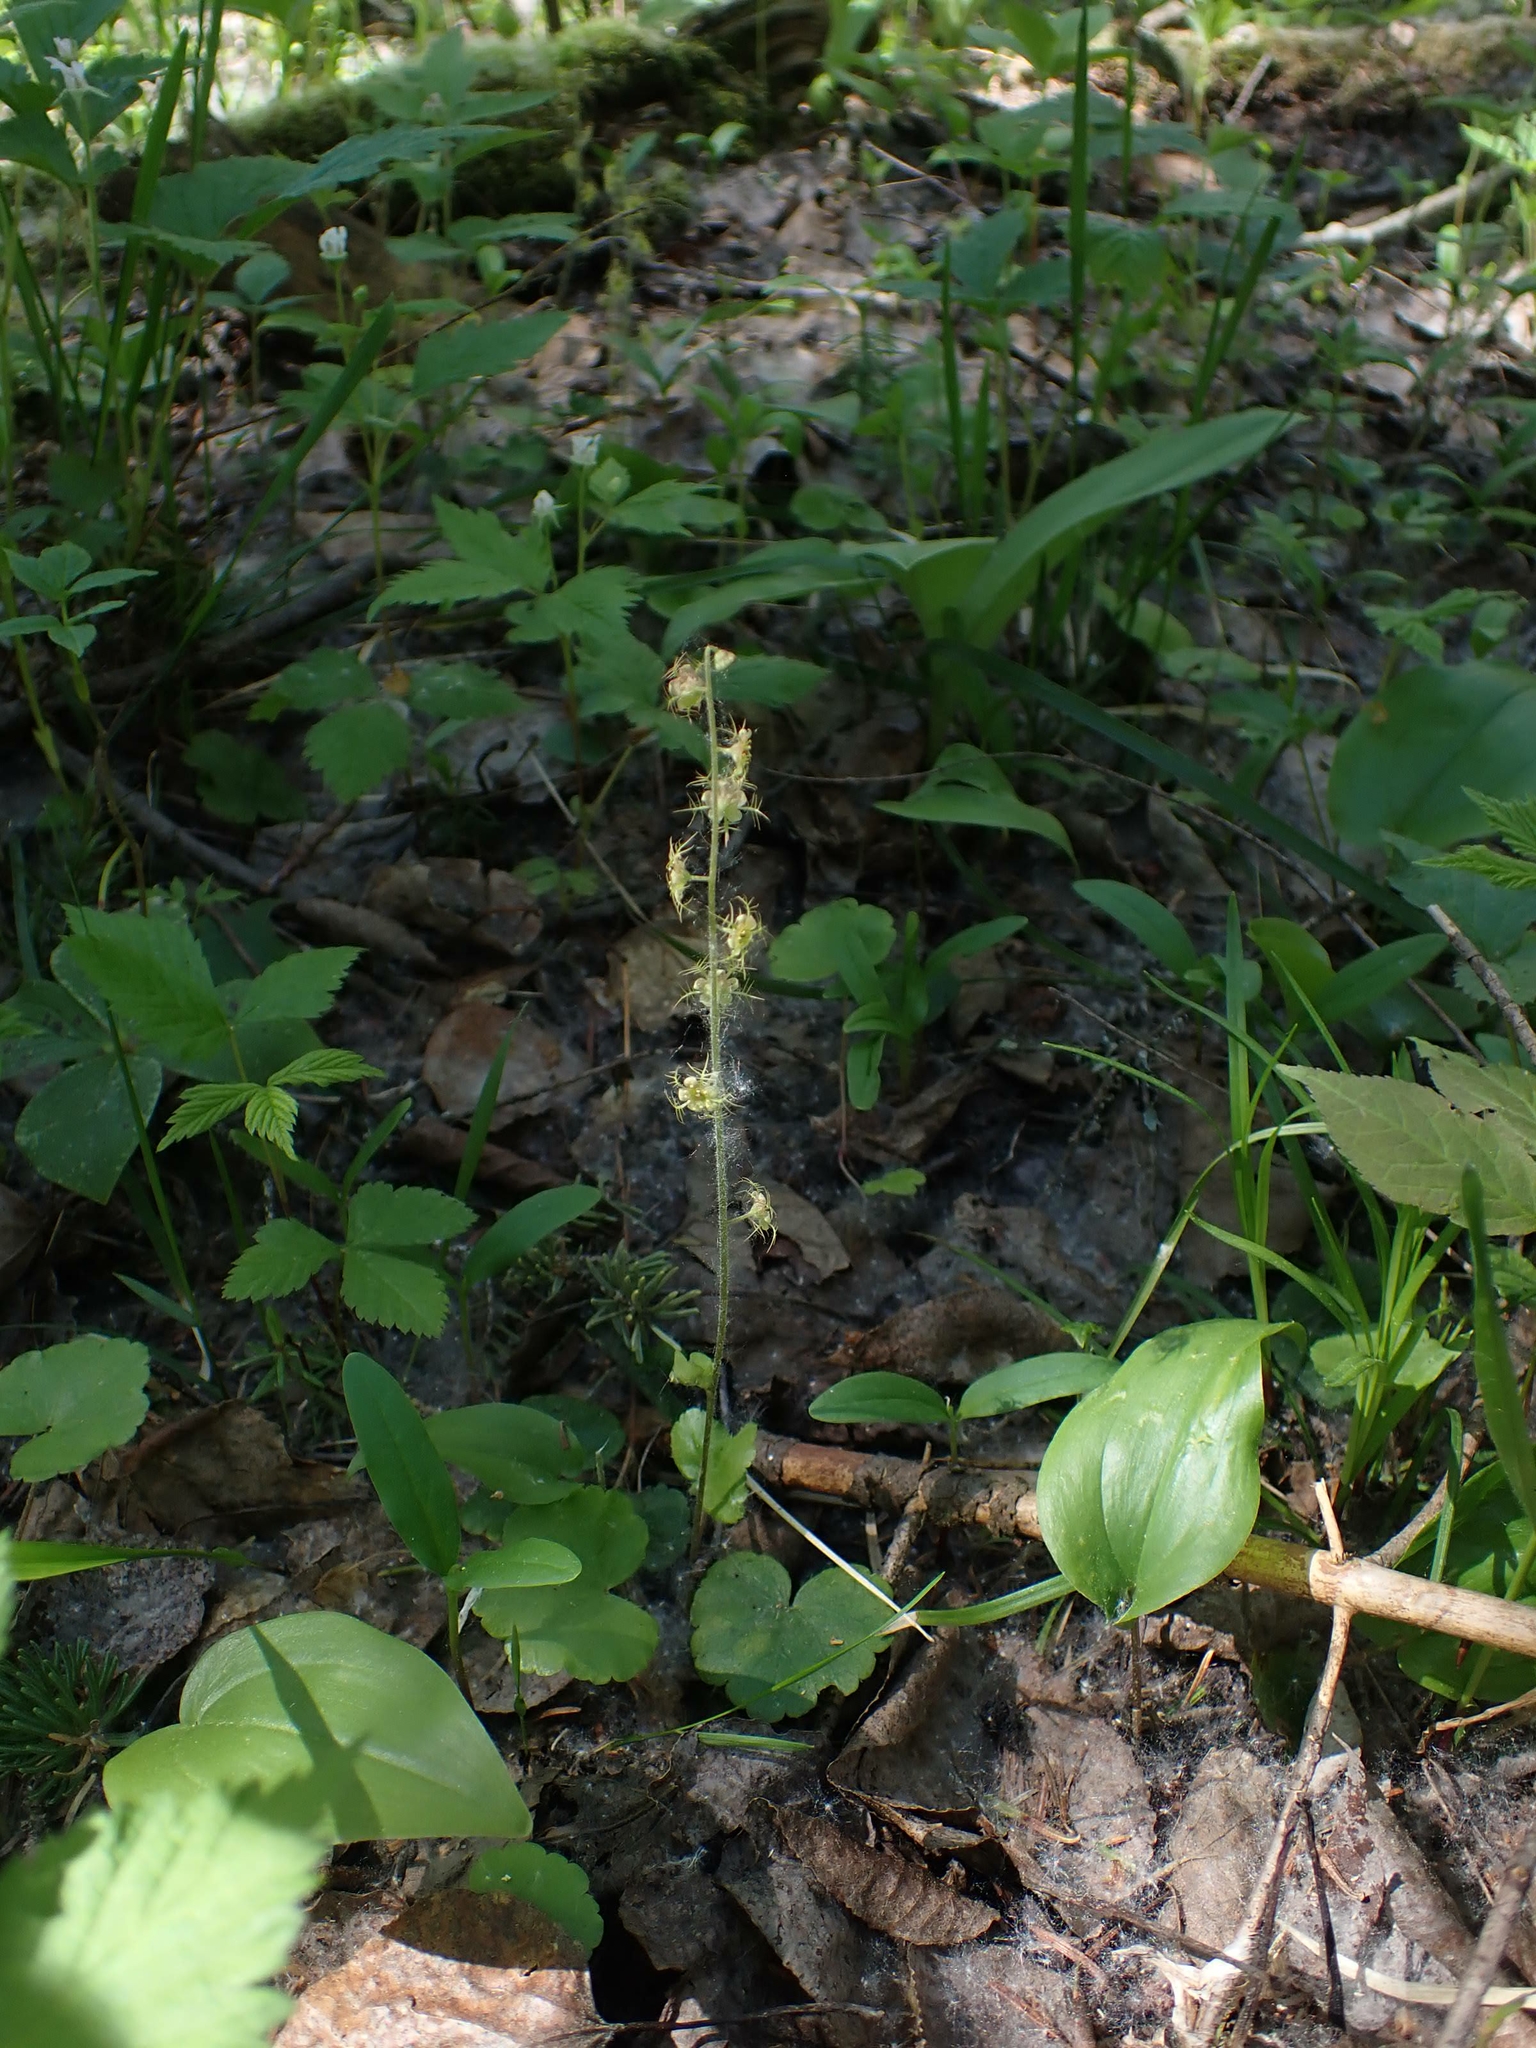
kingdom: Plantae
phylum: Tracheophyta
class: Magnoliopsida
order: Saxifragales
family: Saxifragaceae
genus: Mitella
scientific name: Mitella nuda
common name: Bare-stemmed bishop's-cap
